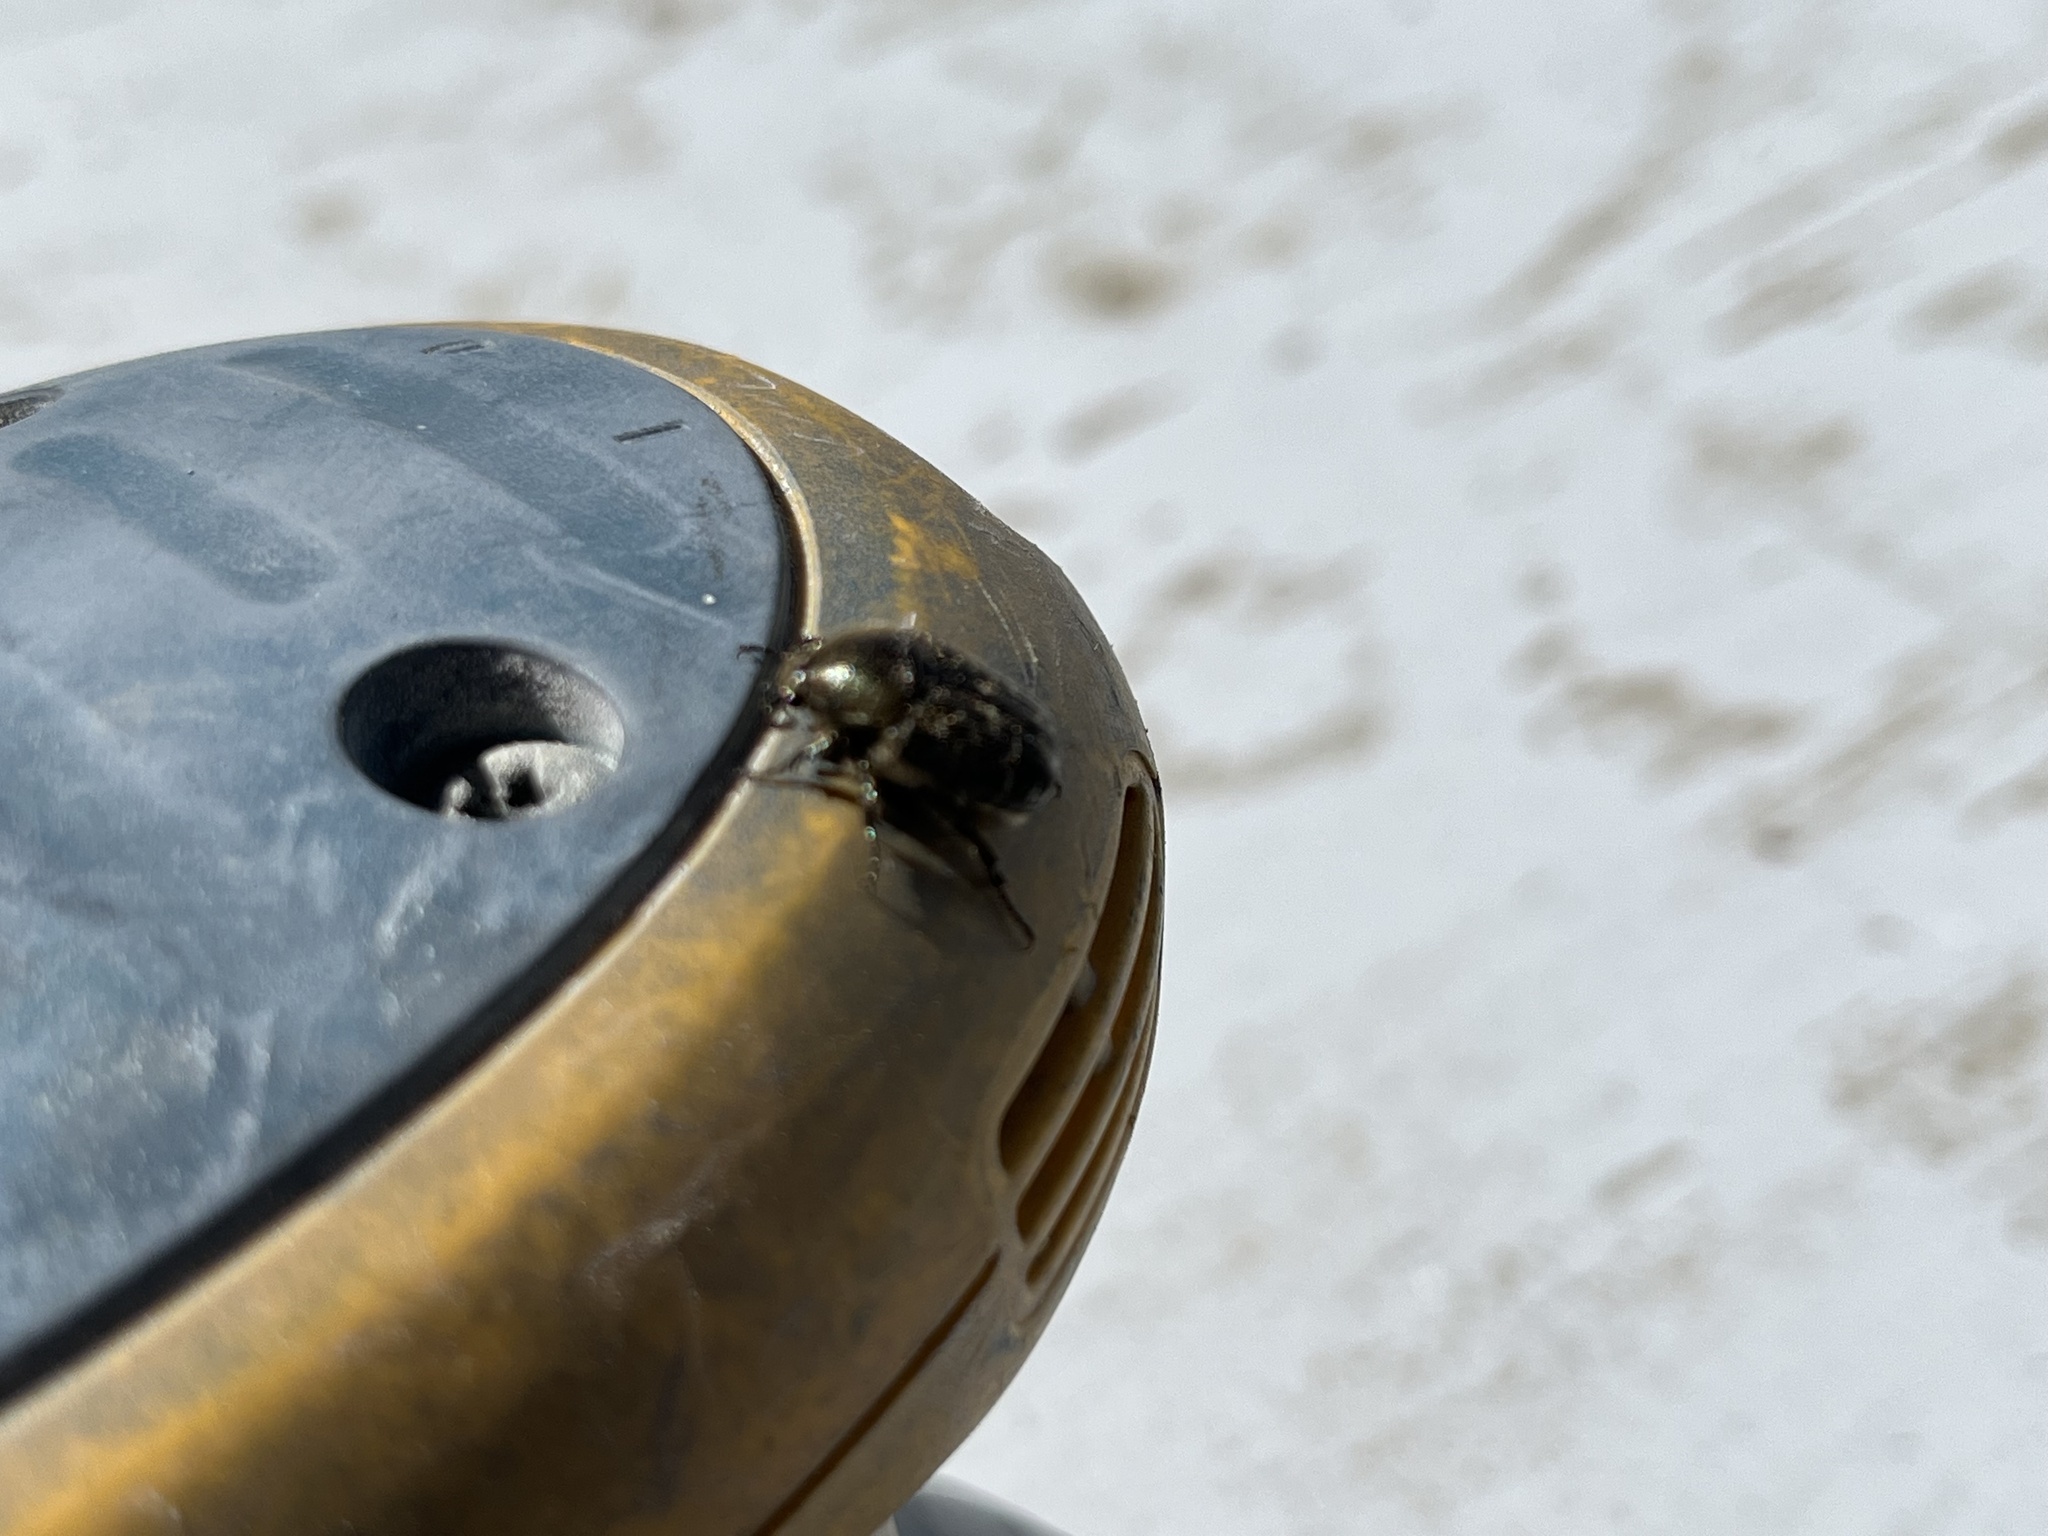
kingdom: Animalia
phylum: Arthropoda
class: Insecta
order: Coleoptera
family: Scarabaeidae
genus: Euphoria
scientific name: Euphoria sepulcralis
